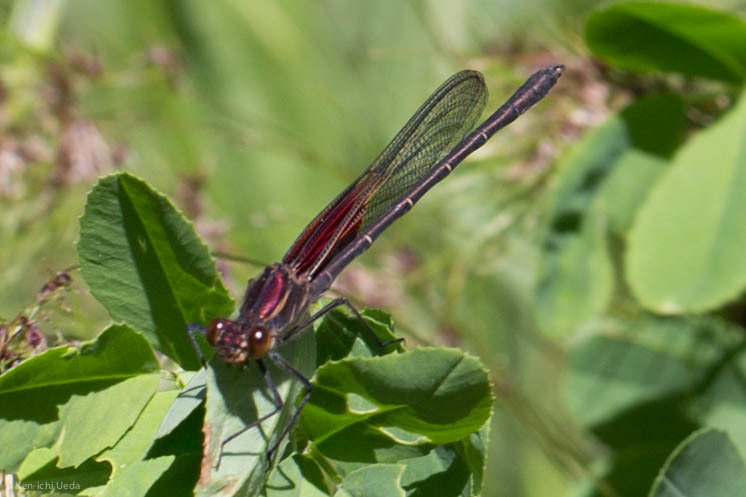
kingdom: Animalia
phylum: Arthropoda
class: Insecta
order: Odonata
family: Calopterygidae
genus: Hetaerina
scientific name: Hetaerina americana
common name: American rubyspot
